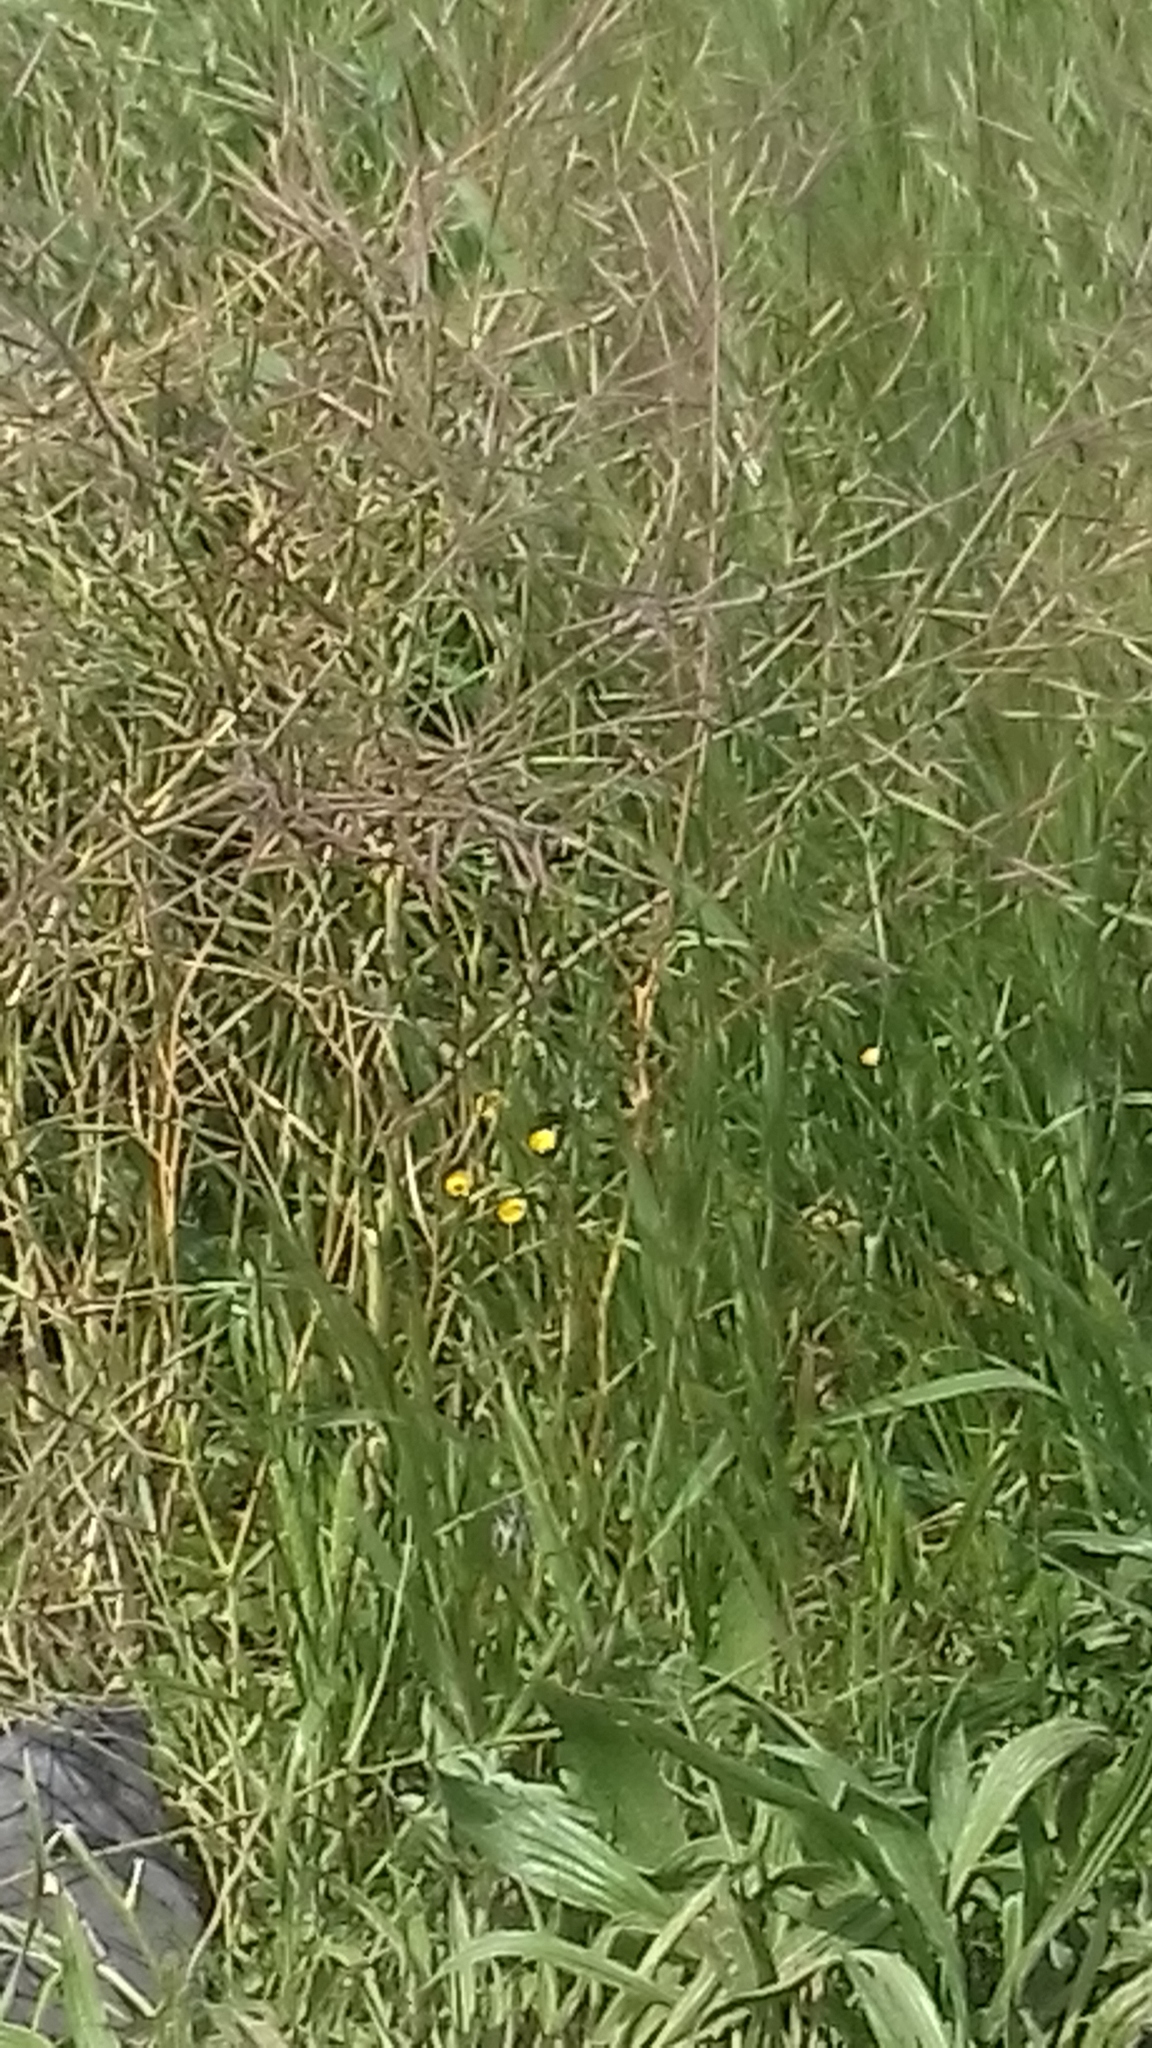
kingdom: Plantae
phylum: Tracheophyta
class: Magnoliopsida
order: Asterales
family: Asteraceae
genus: Cotula
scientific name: Cotula pruinosa
